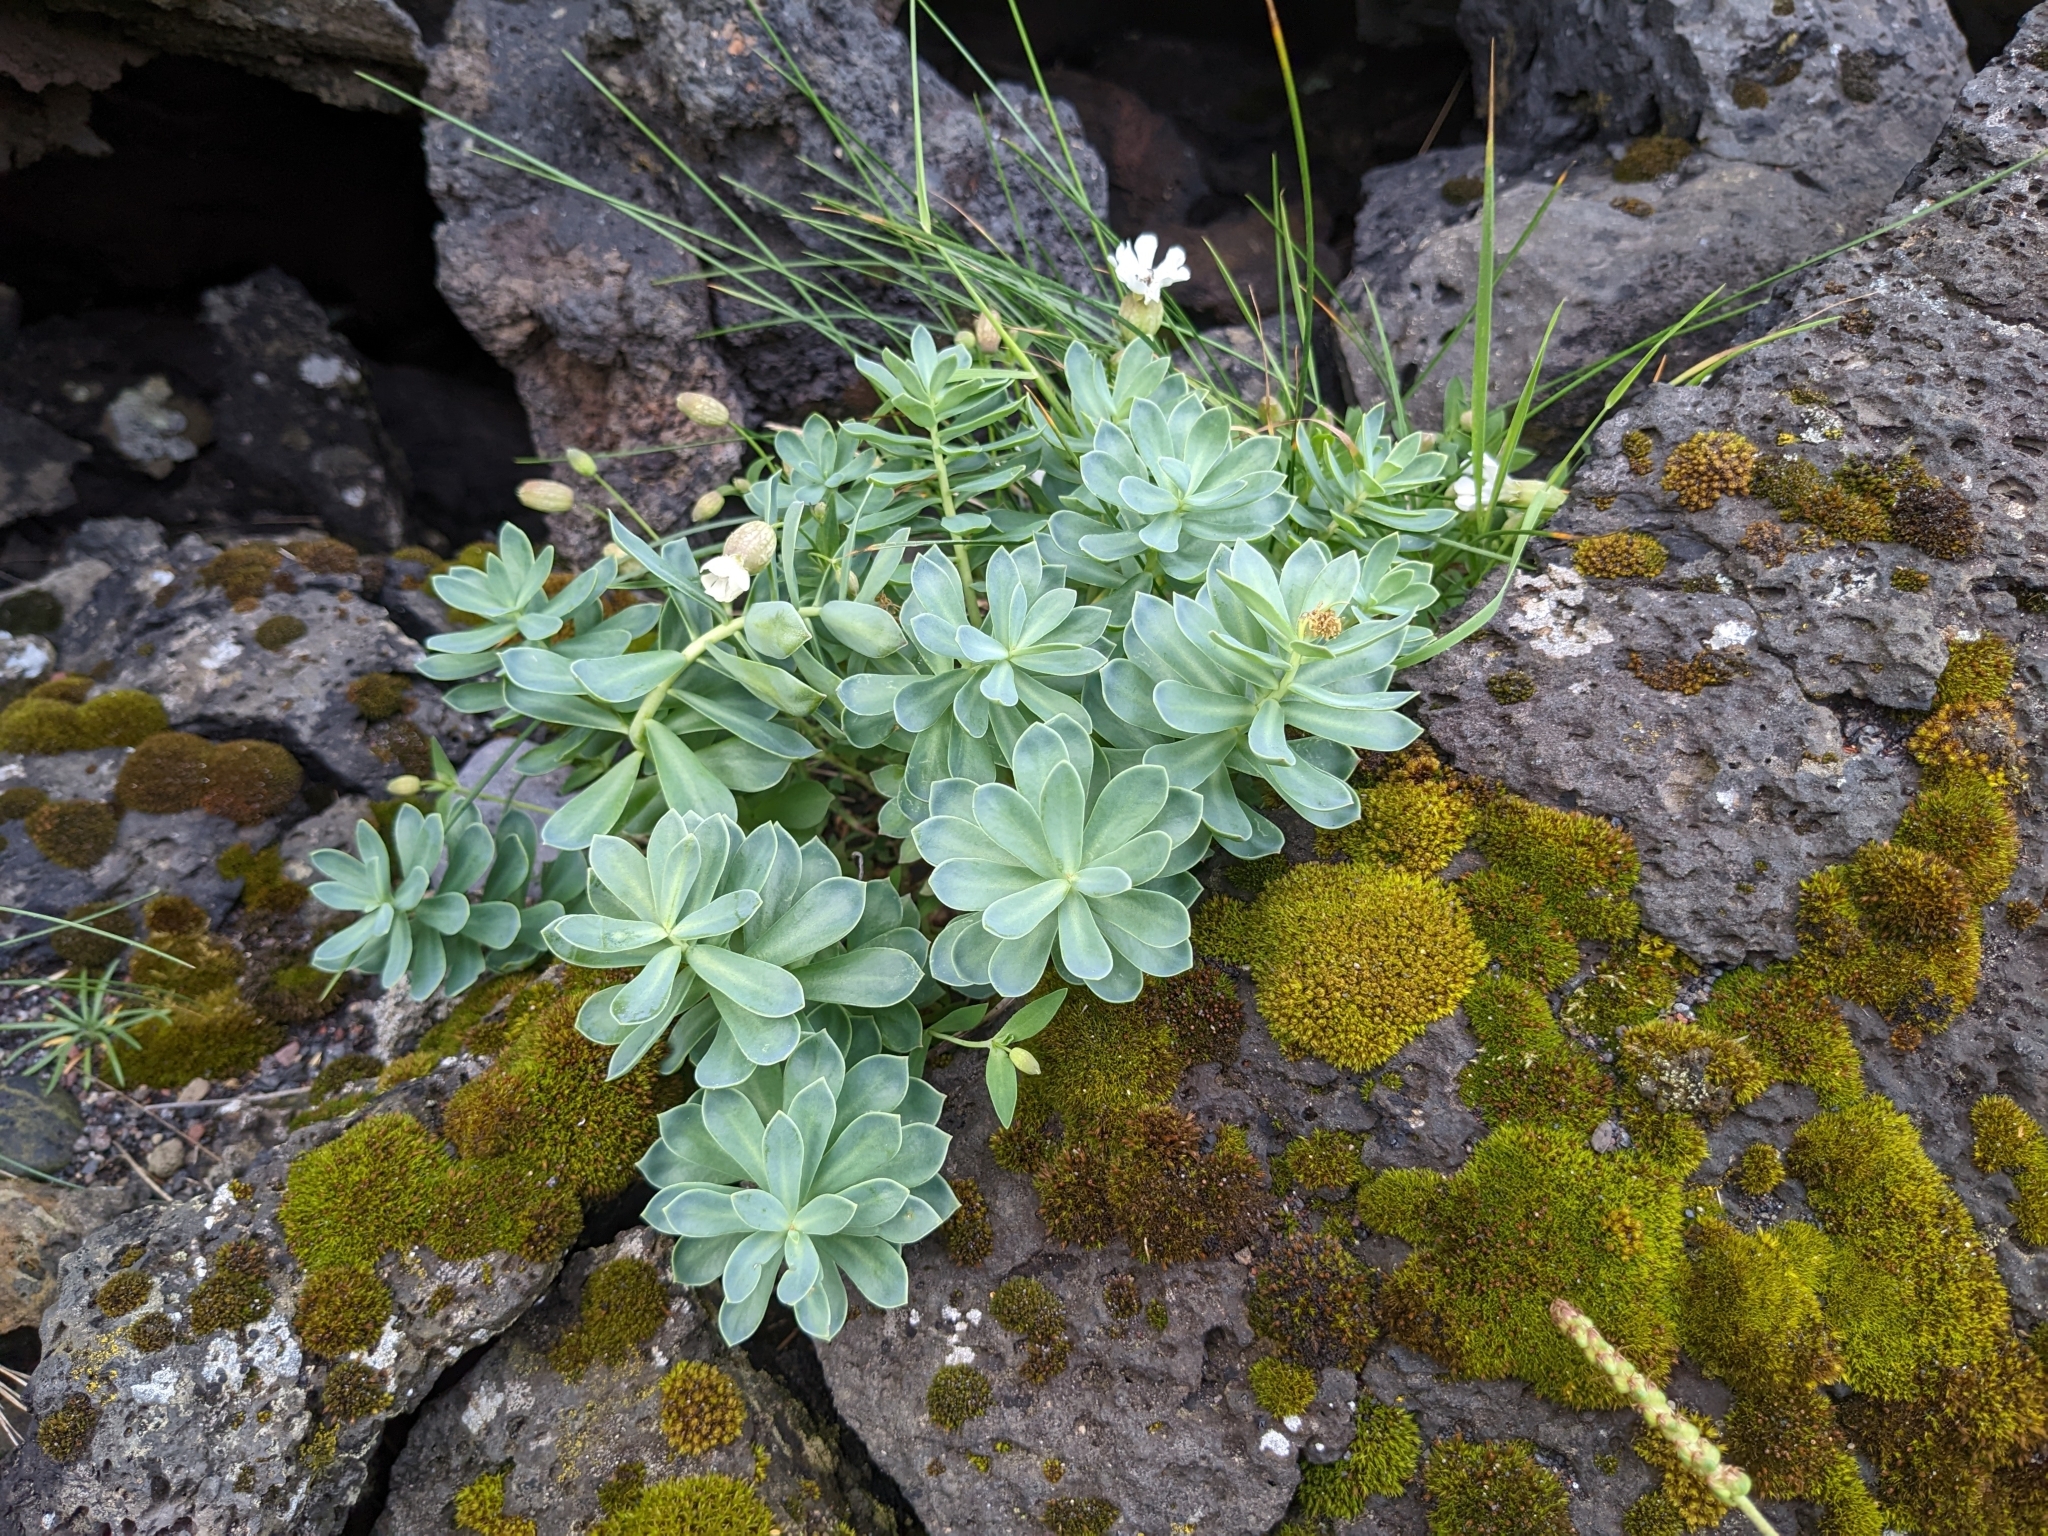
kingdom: Plantae
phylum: Tracheophyta
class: Magnoliopsida
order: Saxifragales
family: Crassulaceae
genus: Rhodiola
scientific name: Rhodiola rosea
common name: Roseroot
